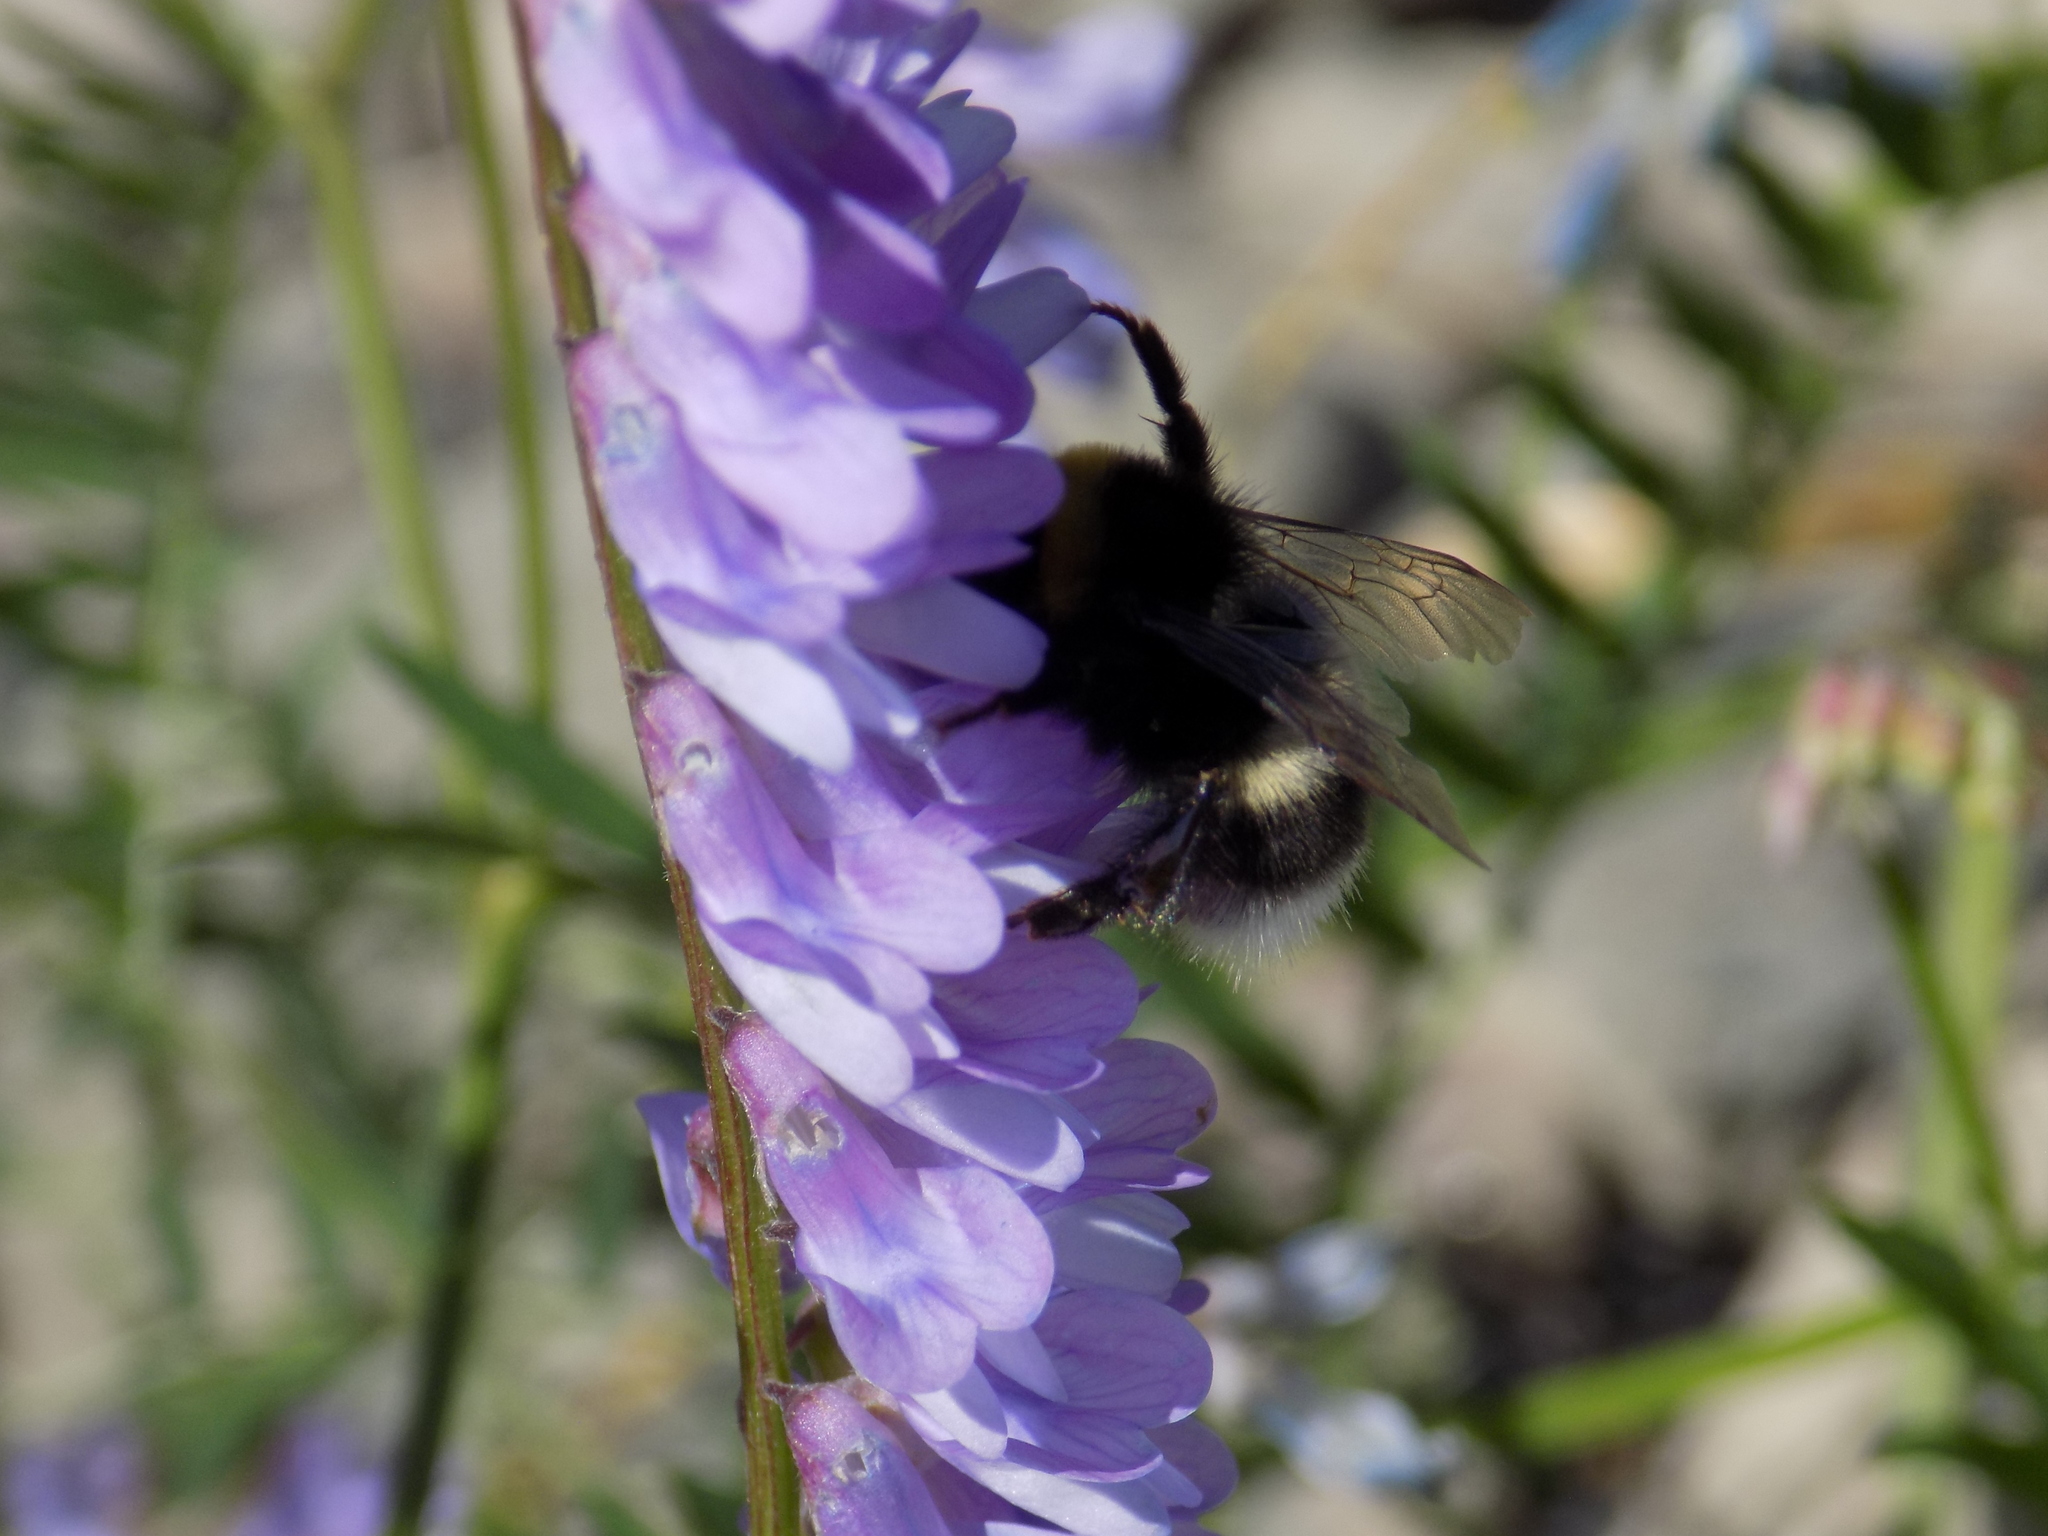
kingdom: Animalia
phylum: Arthropoda
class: Insecta
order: Hymenoptera
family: Apidae
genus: Bombus
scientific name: Bombus
